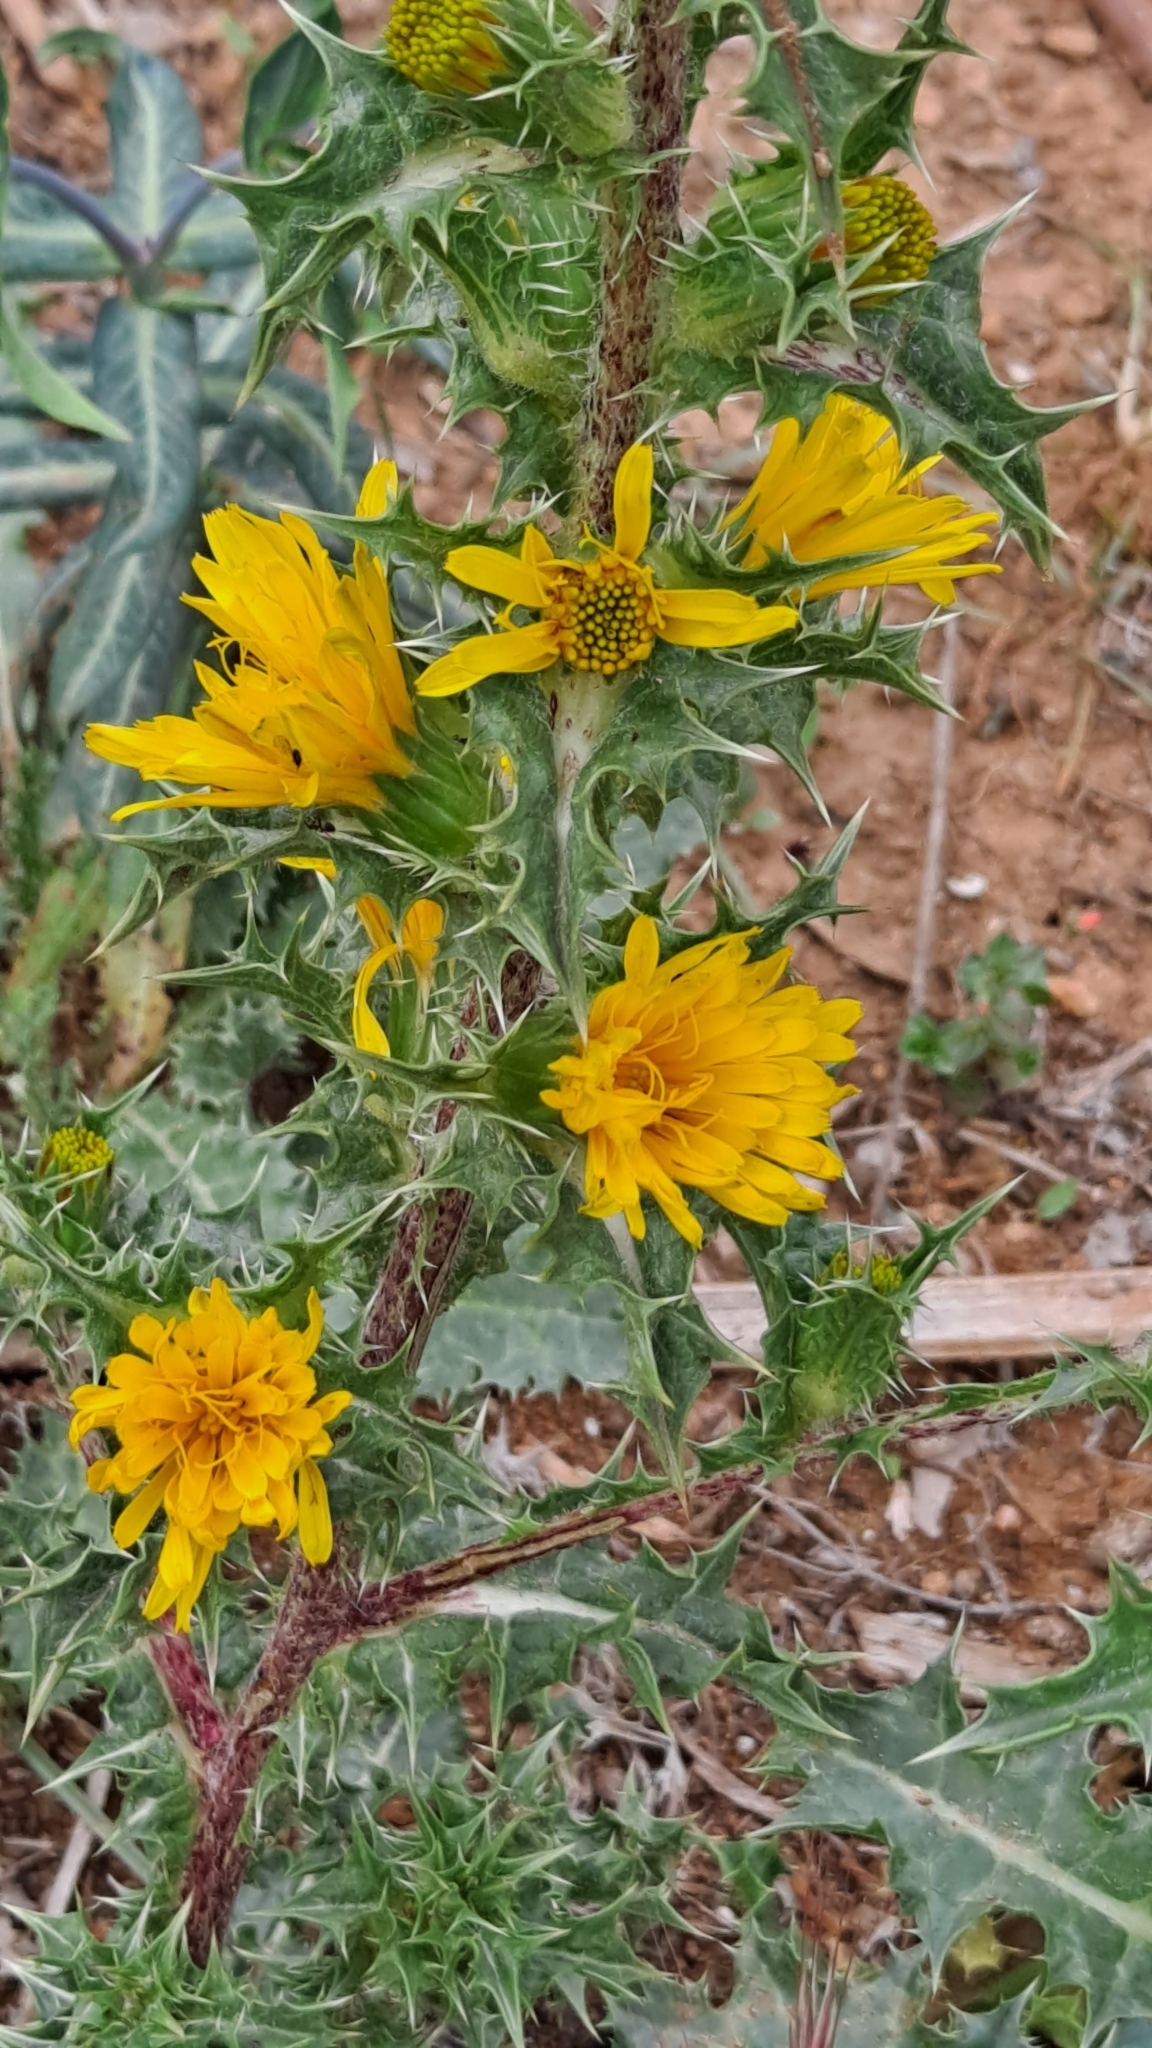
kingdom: Plantae
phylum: Tracheophyta
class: Magnoliopsida
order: Asterales
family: Asteraceae
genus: Scolymus
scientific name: Scolymus hispanicus
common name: Golden thistle
